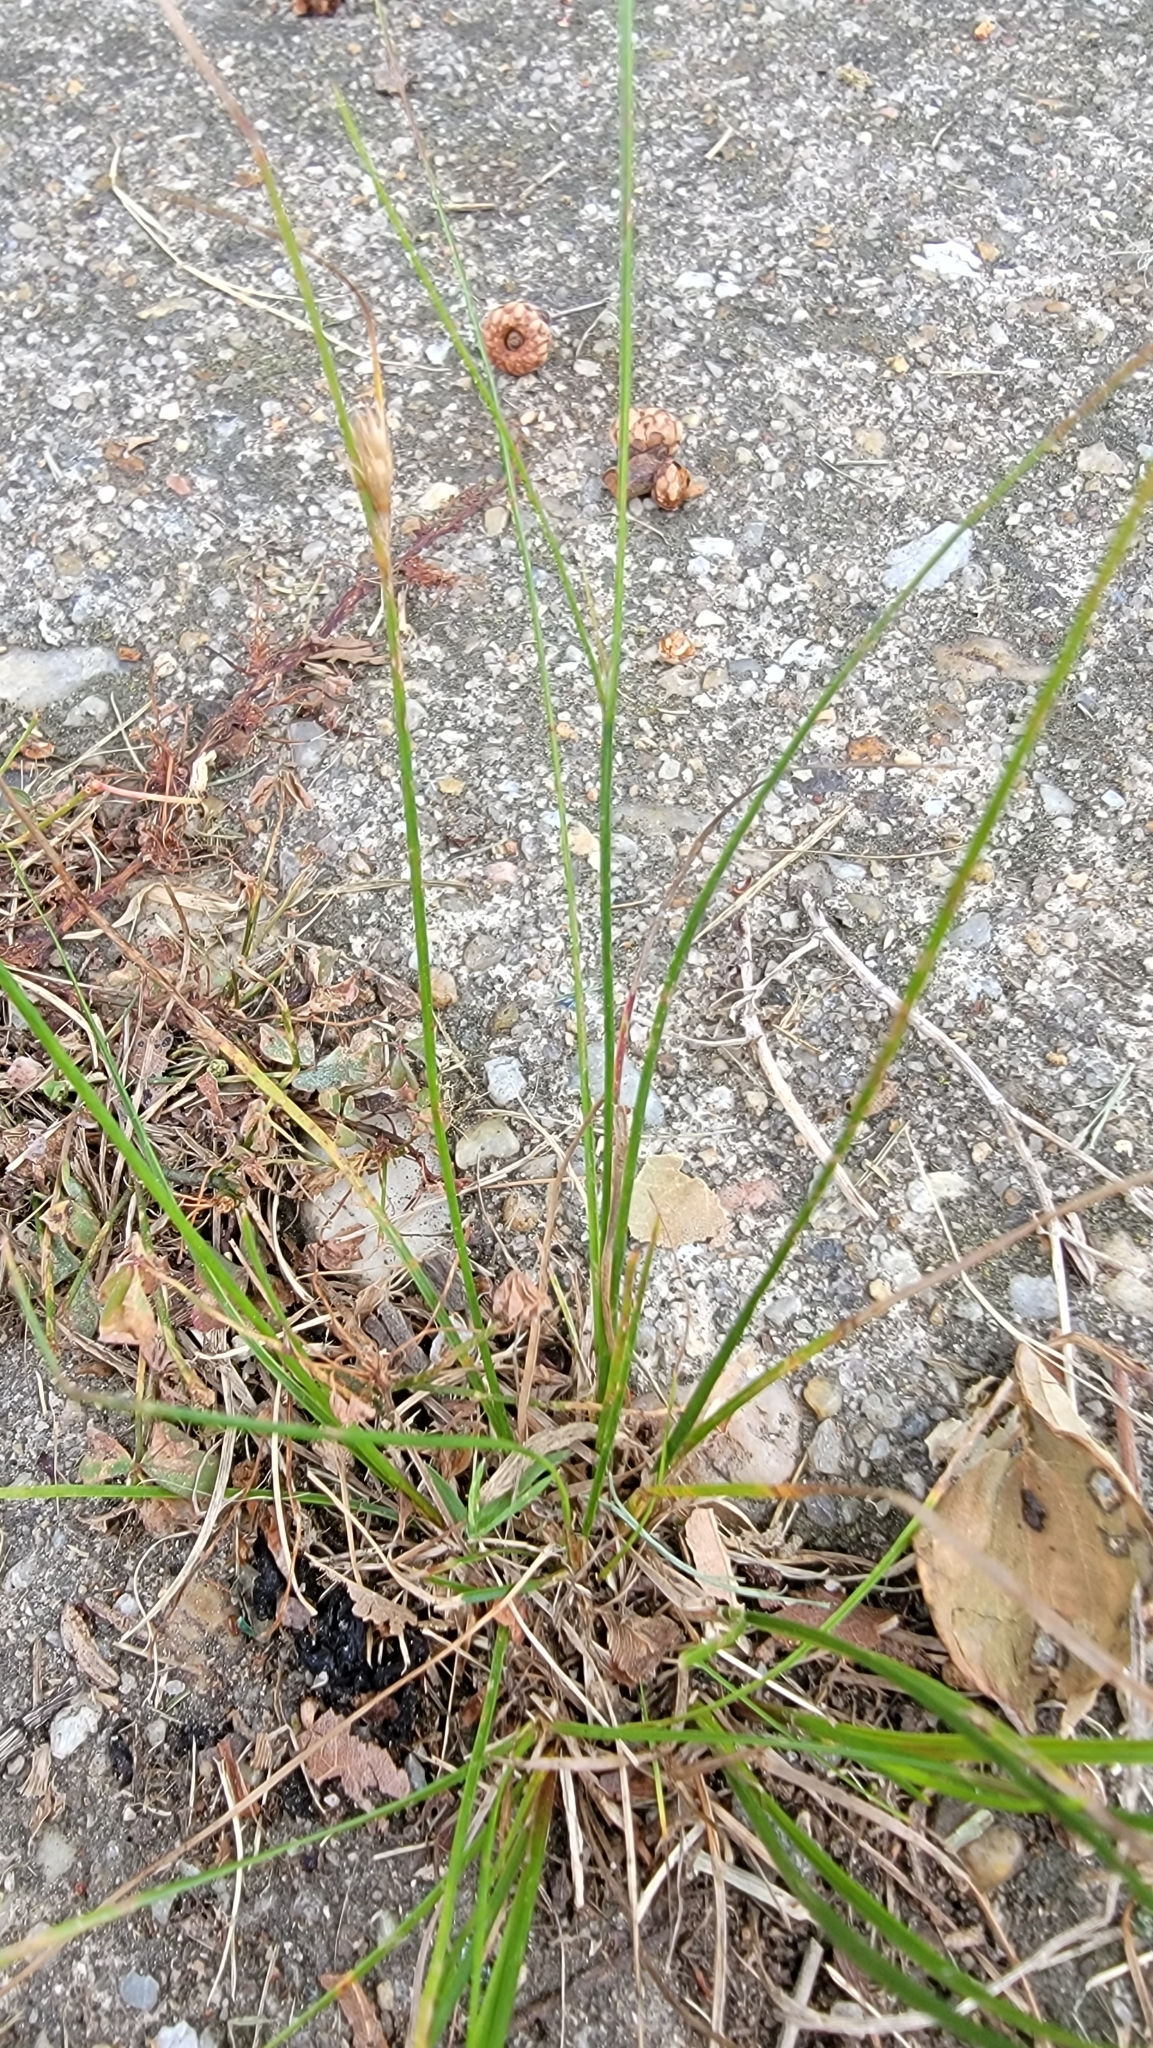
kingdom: Plantae
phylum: Tracheophyta
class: Liliopsida
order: Poales
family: Juncaceae
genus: Juncus
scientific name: Juncus tenuis
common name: Slender rush
